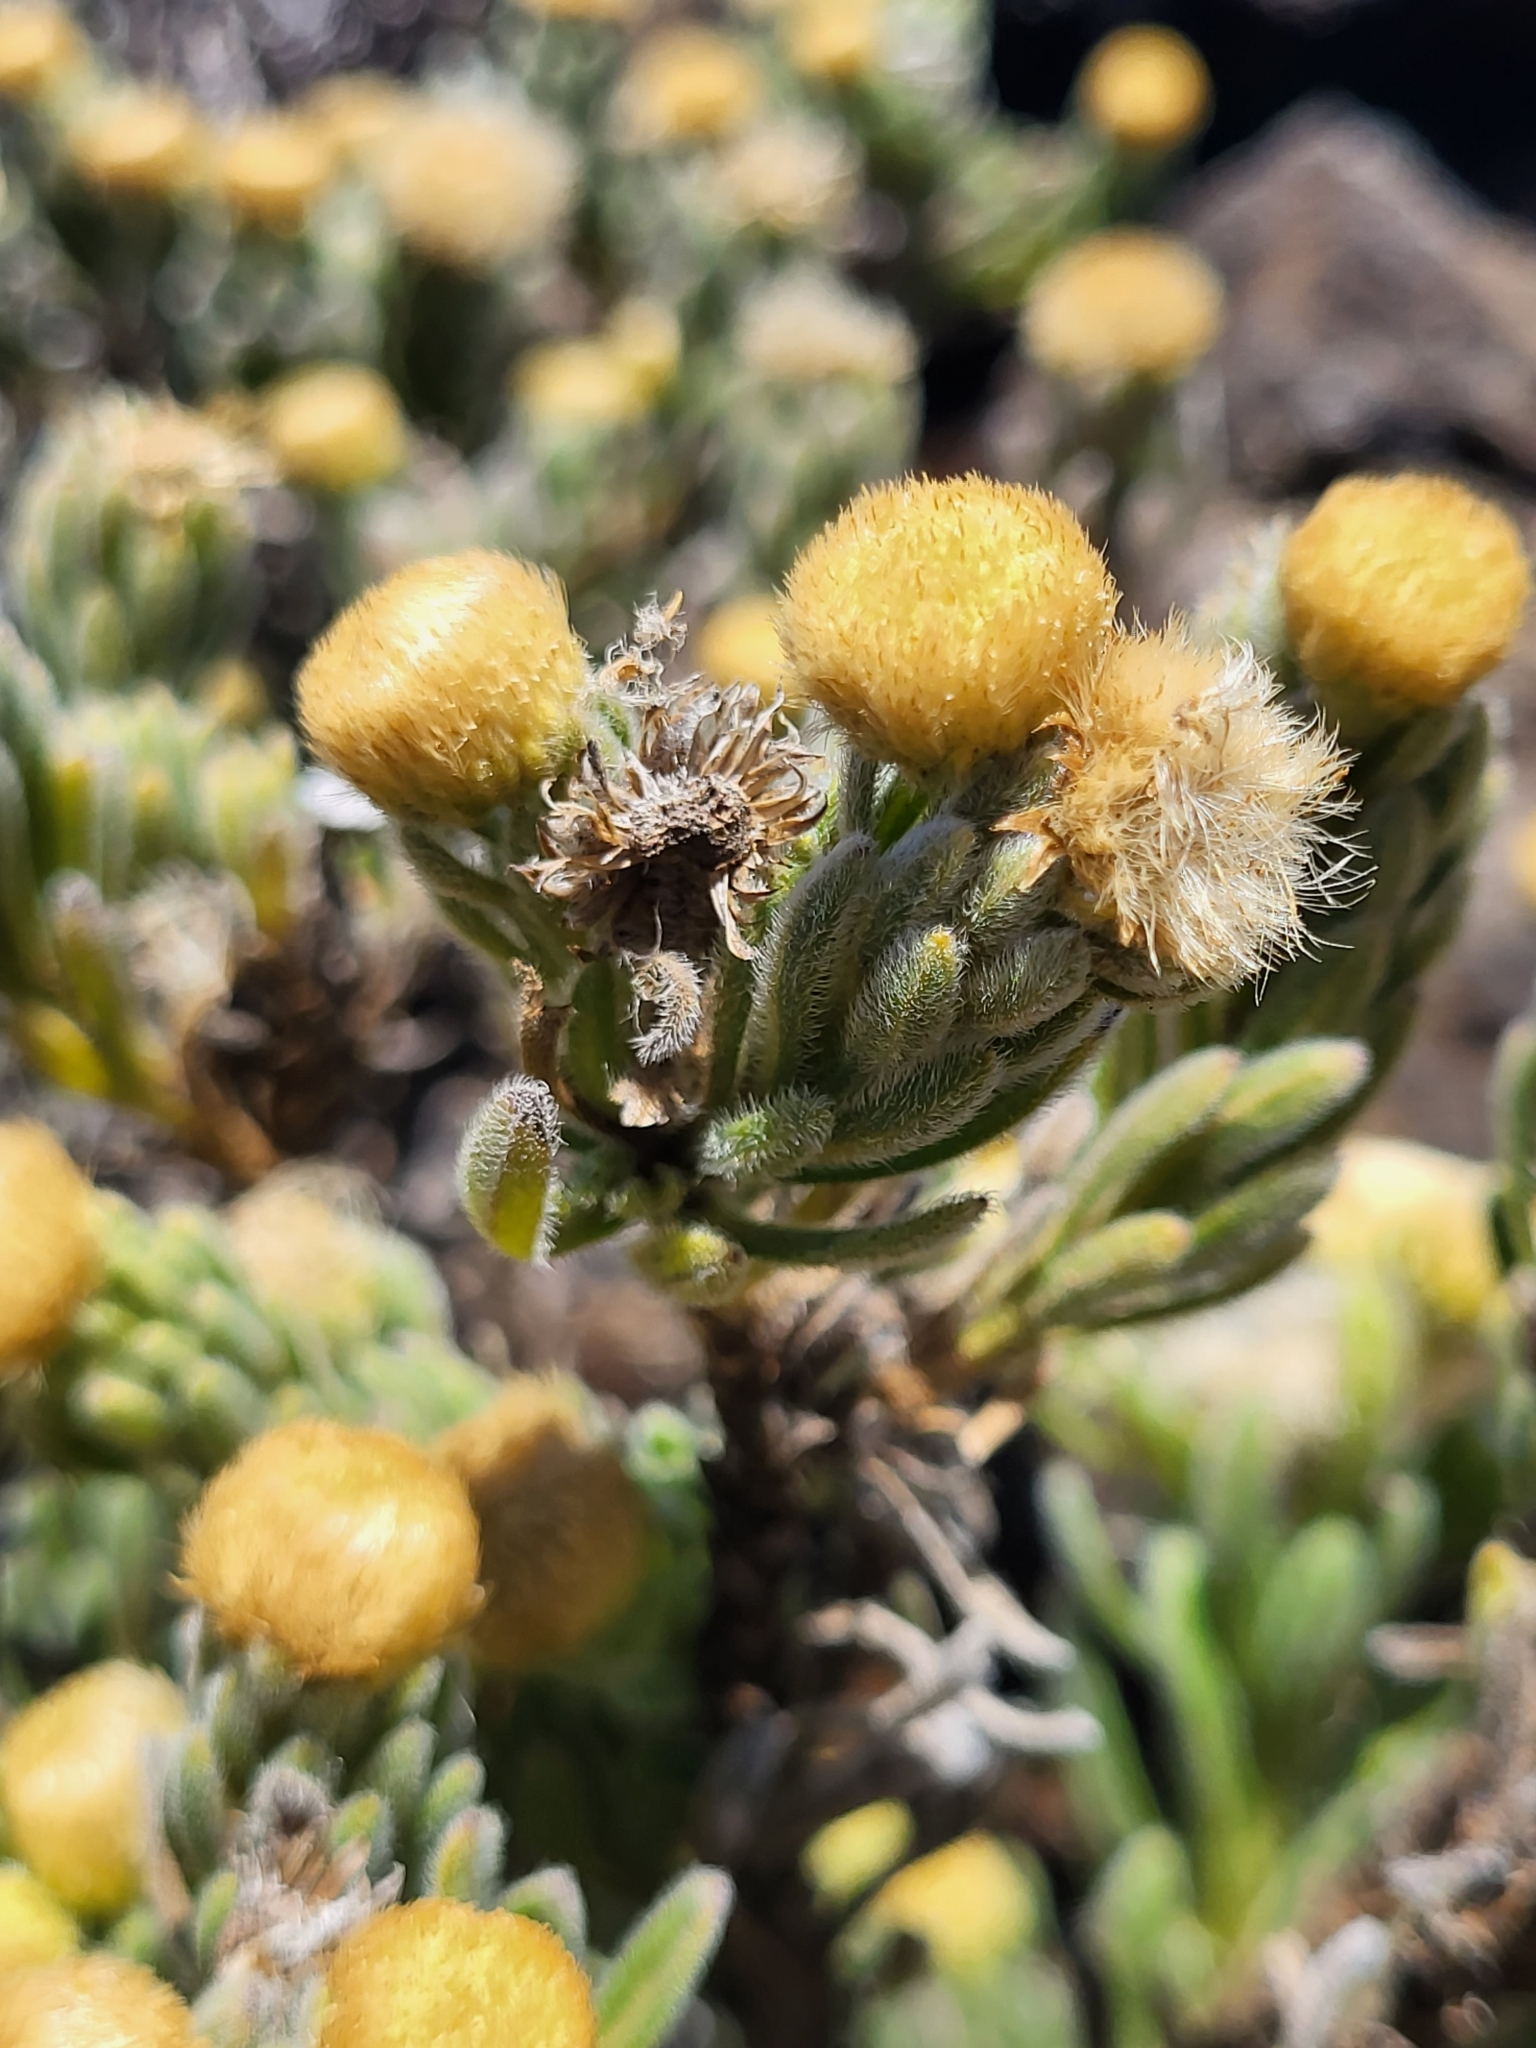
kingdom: Plantae
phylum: Tracheophyta
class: Magnoliopsida
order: Asterales
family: Asteraceae
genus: Psiadia
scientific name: Psiadia callocephala
